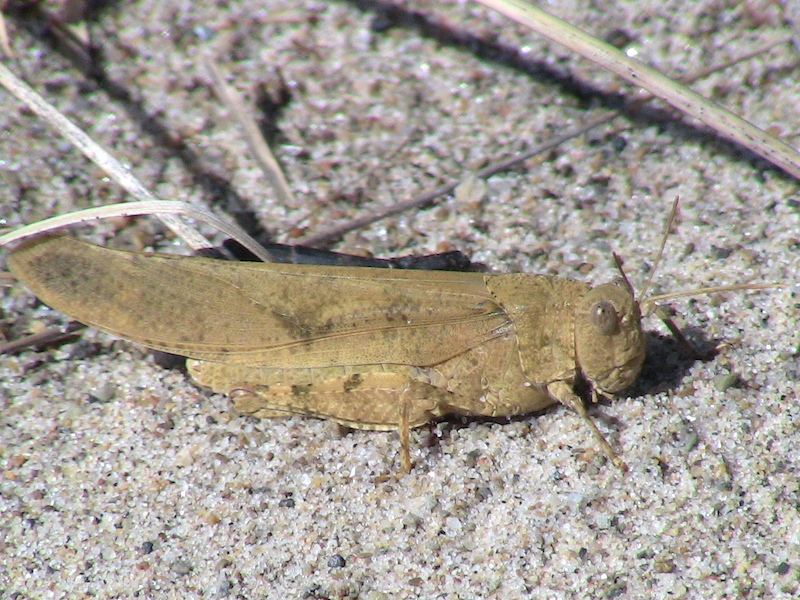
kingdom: Animalia
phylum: Arthropoda
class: Insecta
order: Orthoptera
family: Acrididae
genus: Dissosteira
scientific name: Dissosteira carolina
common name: Carolina grasshopper
